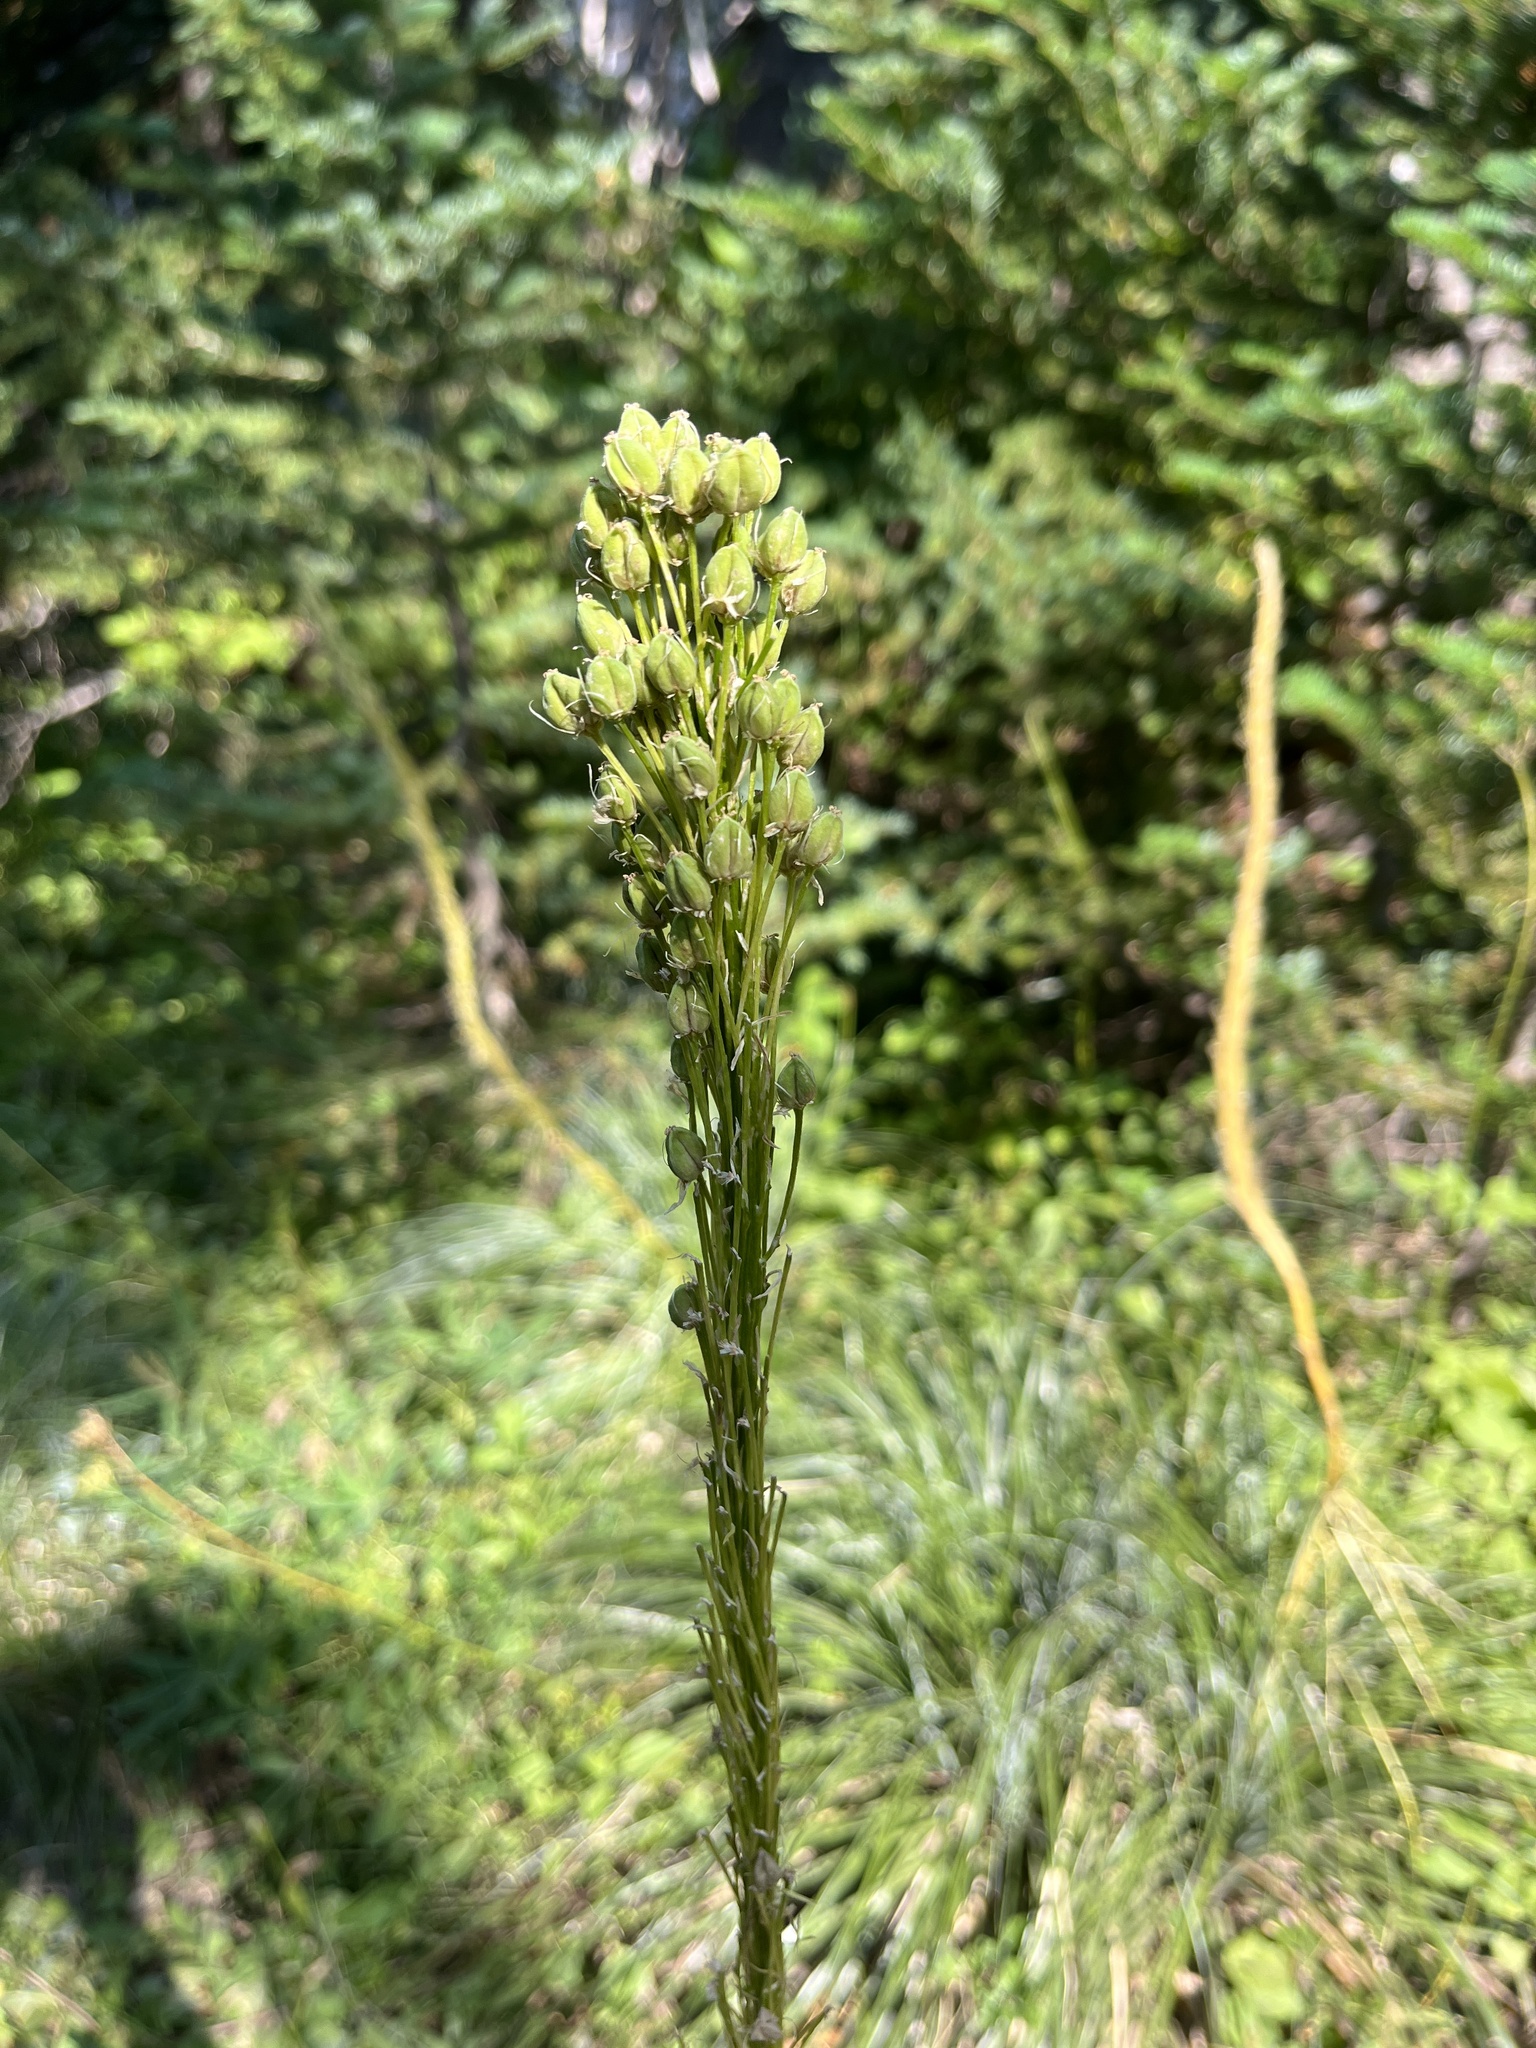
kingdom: Plantae
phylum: Tracheophyta
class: Liliopsida
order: Liliales
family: Melanthiaceae
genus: Xerophyllum
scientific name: Xerophyllum tenax
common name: Bear-grass
